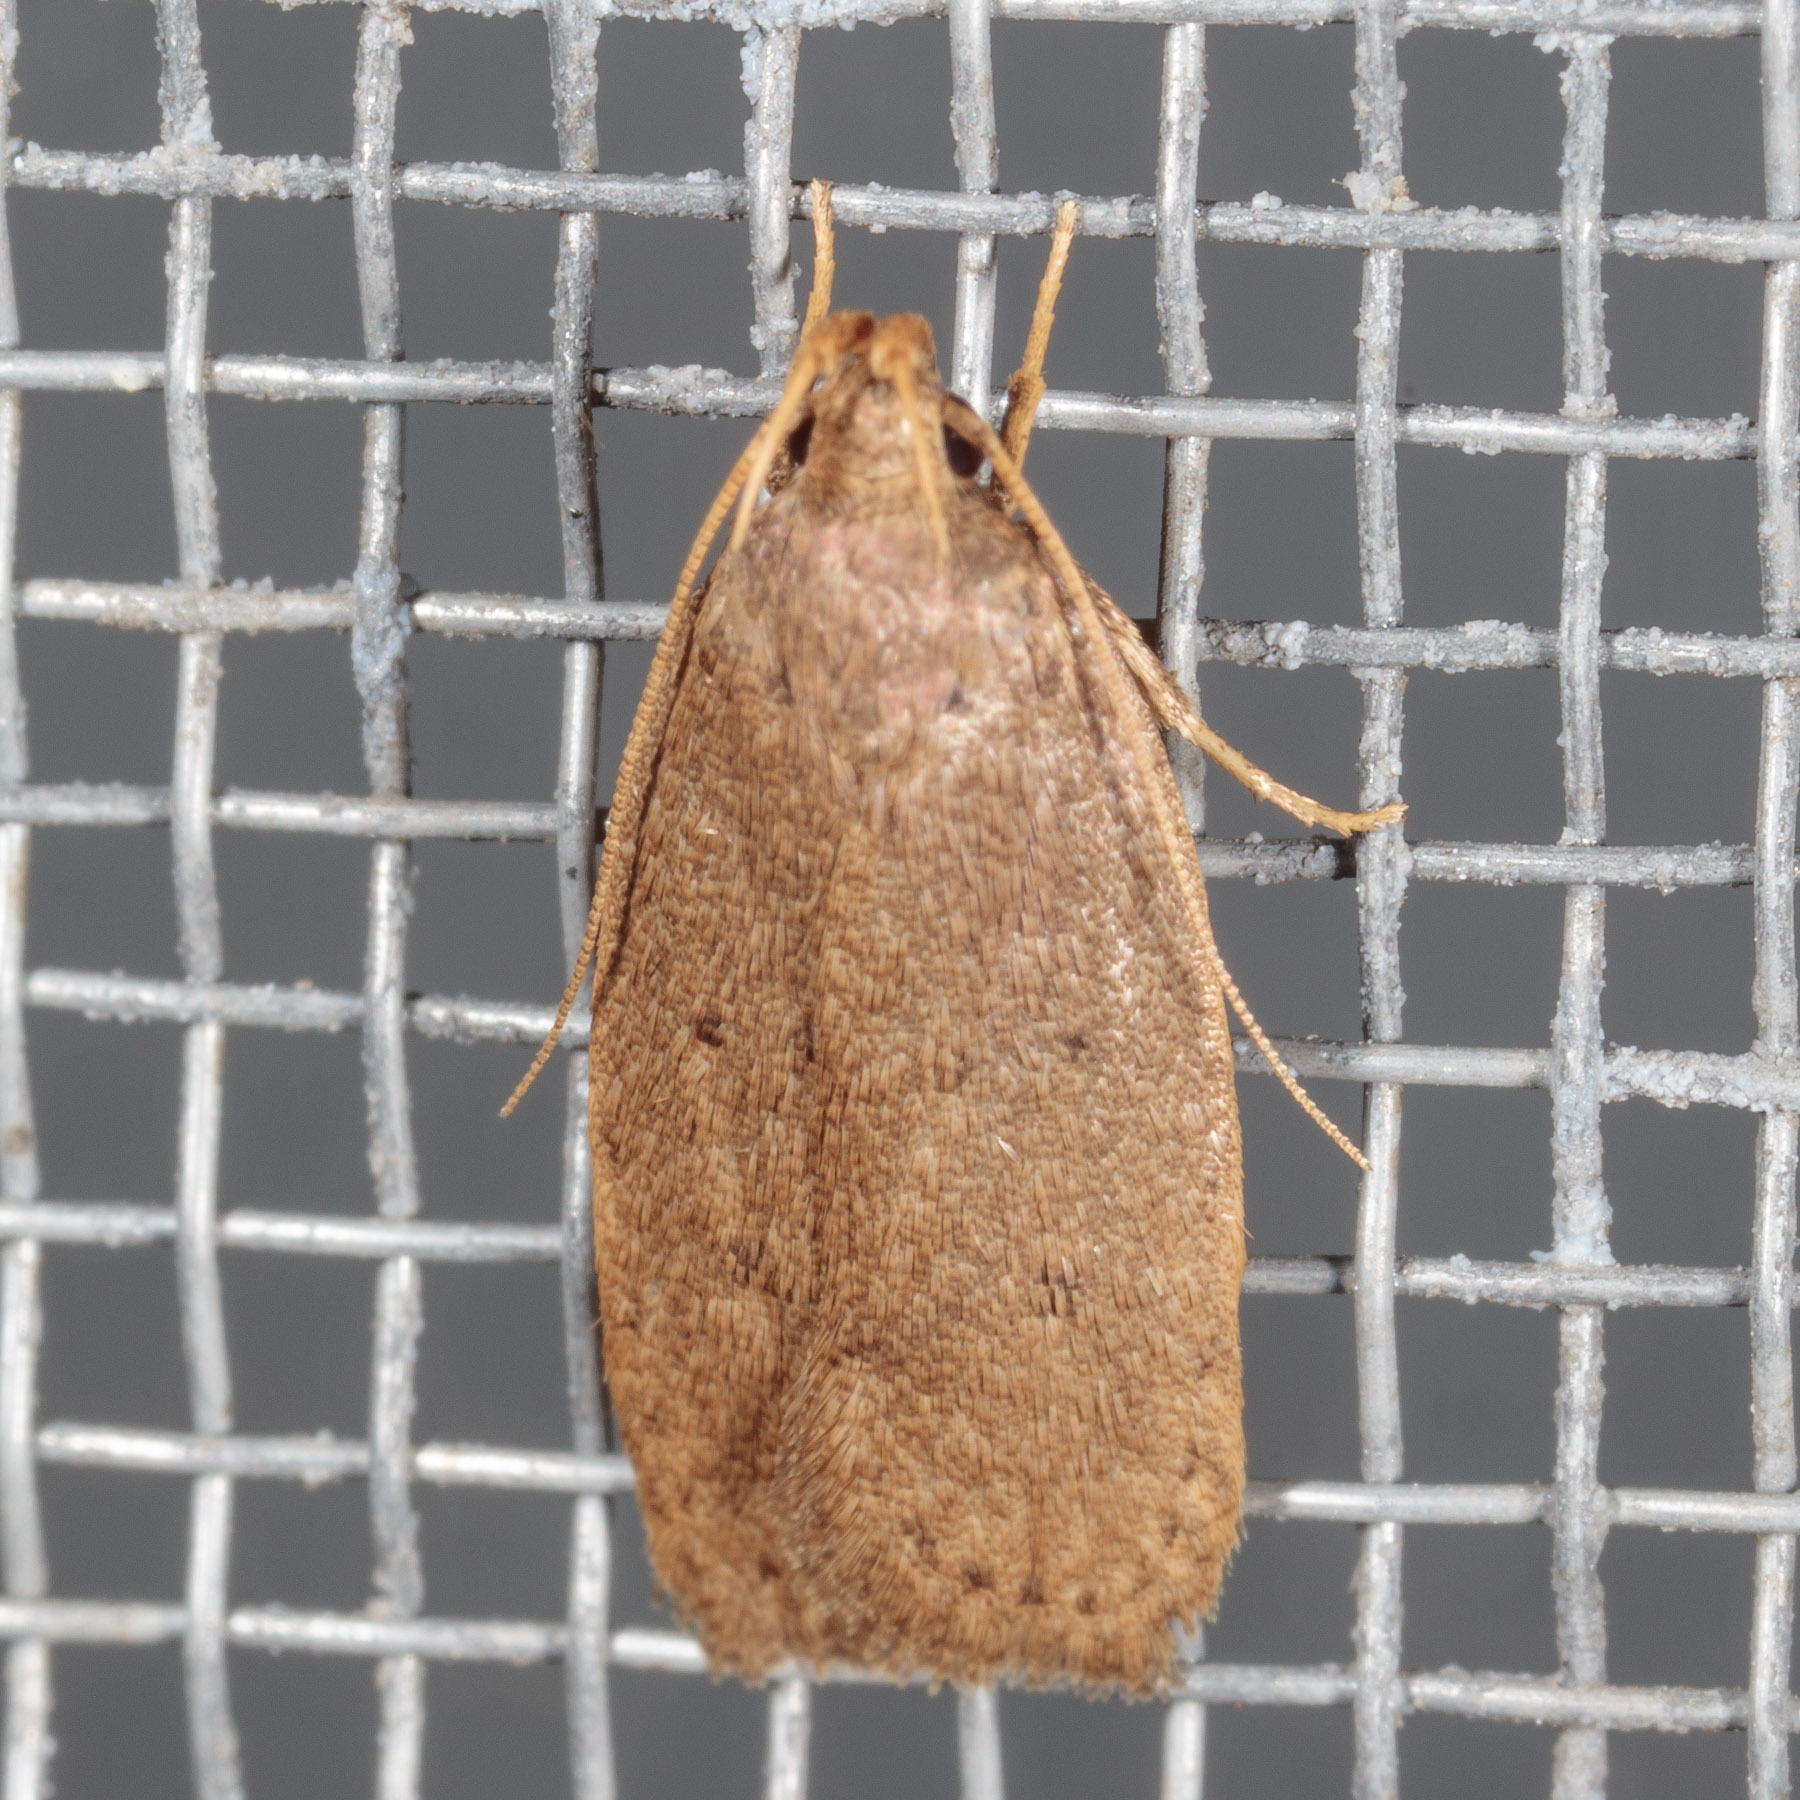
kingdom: Animalia
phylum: Arthropoda
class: Insecta
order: Lepidoptera
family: Autostichidae
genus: Autosticha
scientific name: Autosticha kyotensis
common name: Kyoto moth
